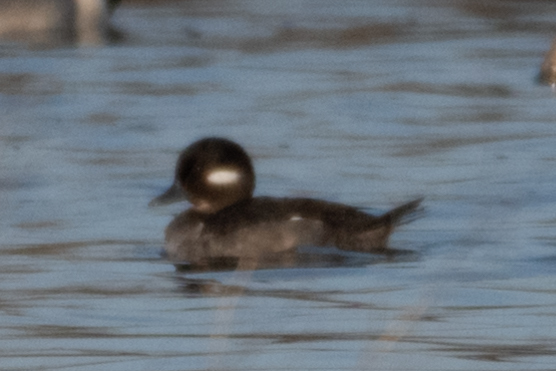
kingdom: Animalia
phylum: Chordata
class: Aves
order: Anseriformes
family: Anatidae
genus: Bucephala
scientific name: Bucephala albeola
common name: Bufflehead
